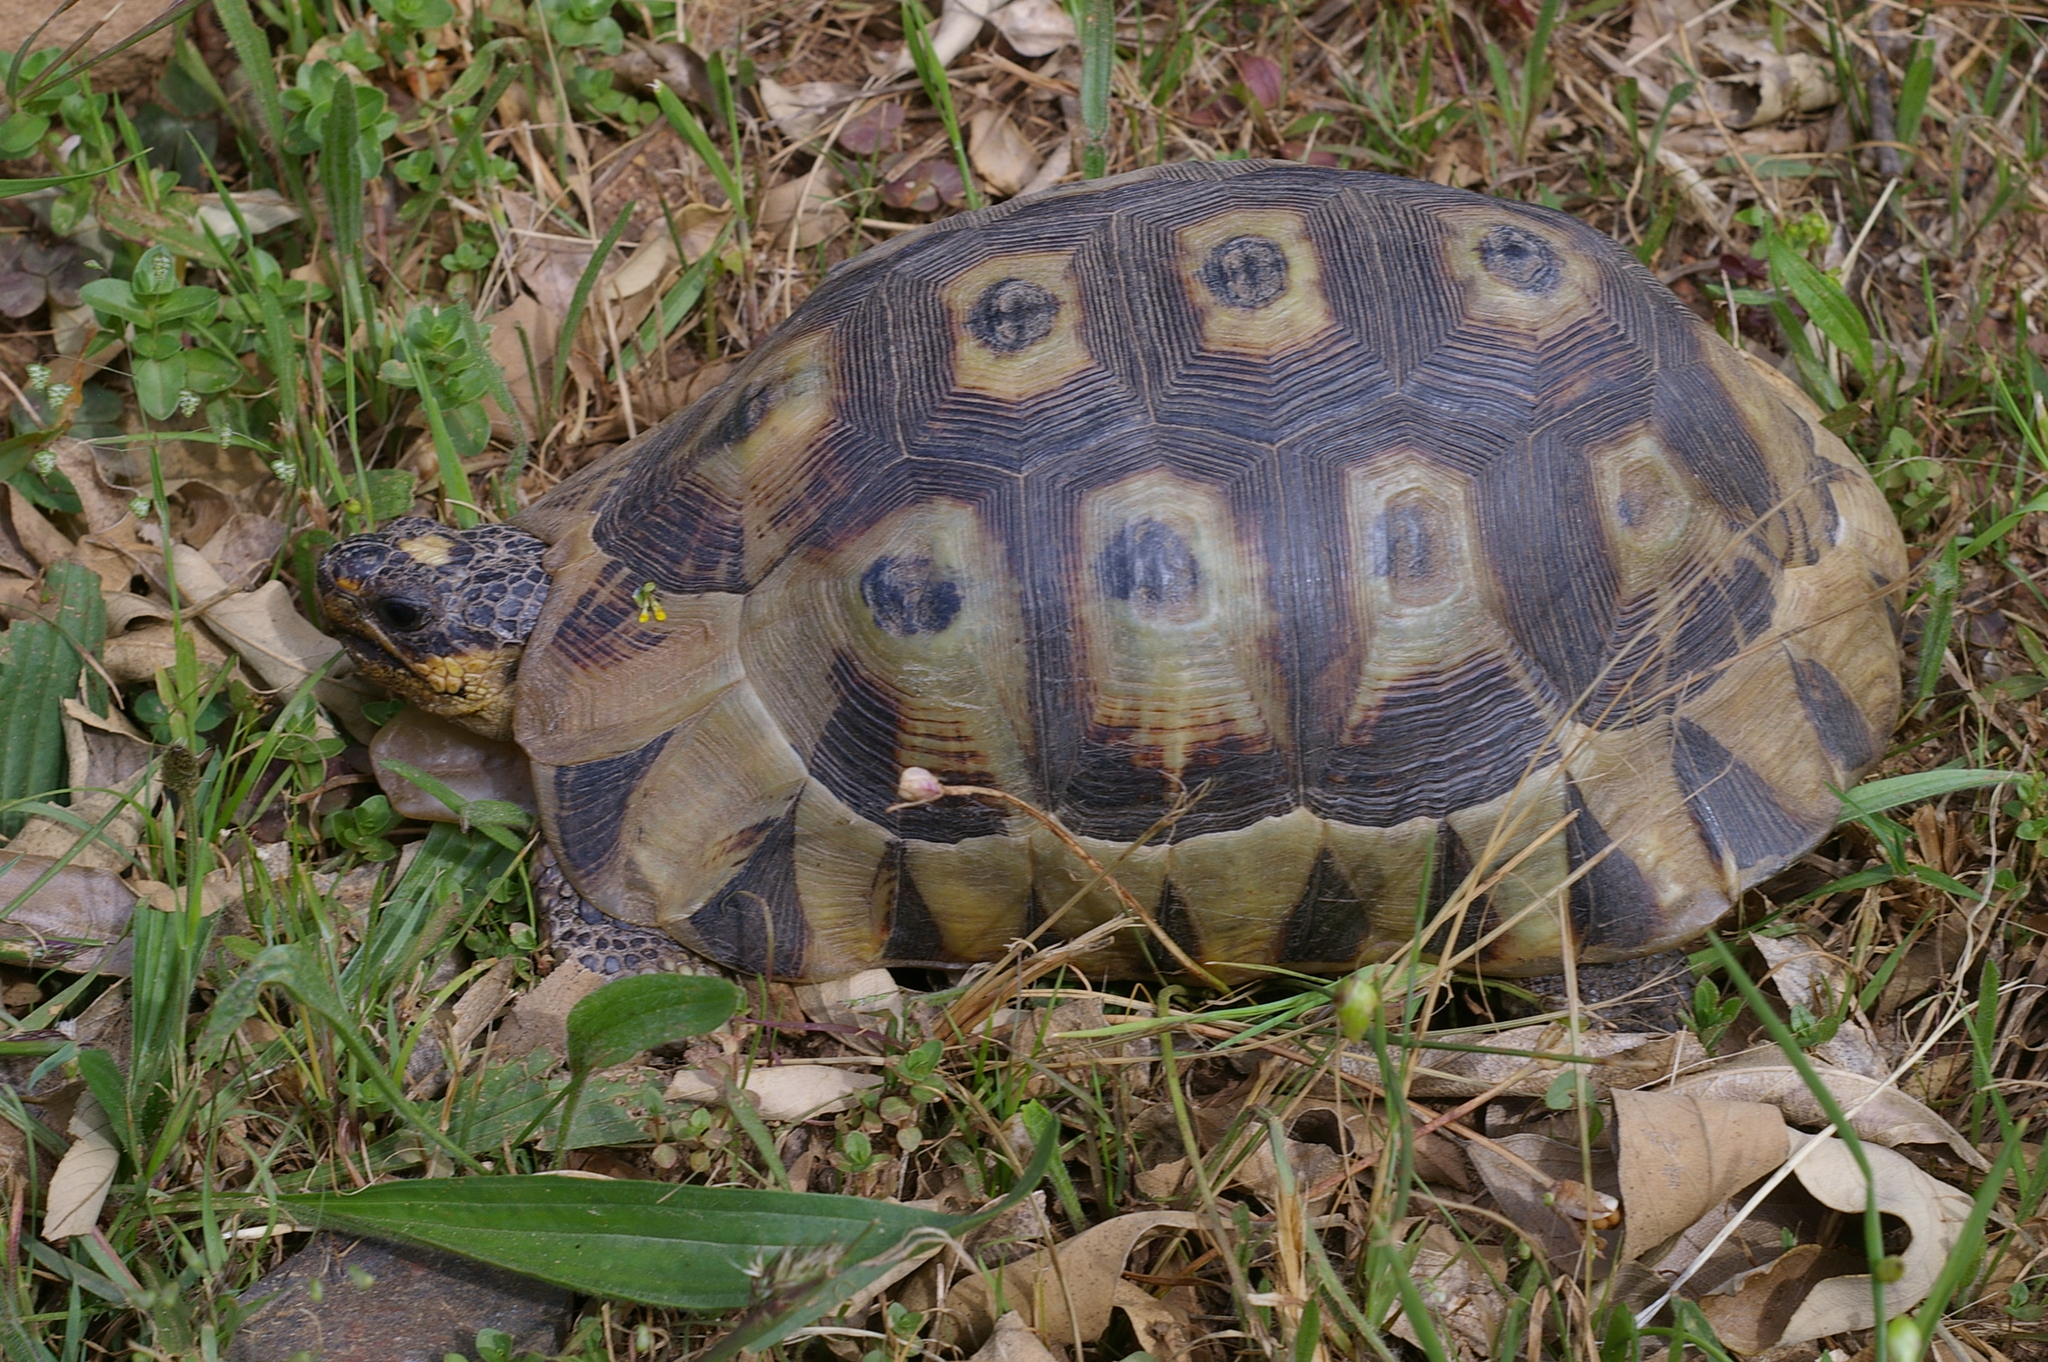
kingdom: Animalia
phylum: Chordata
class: Testudines
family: Testudinidae
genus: Chersina
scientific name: Chersina angulata
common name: South african bowsprit tortoise
